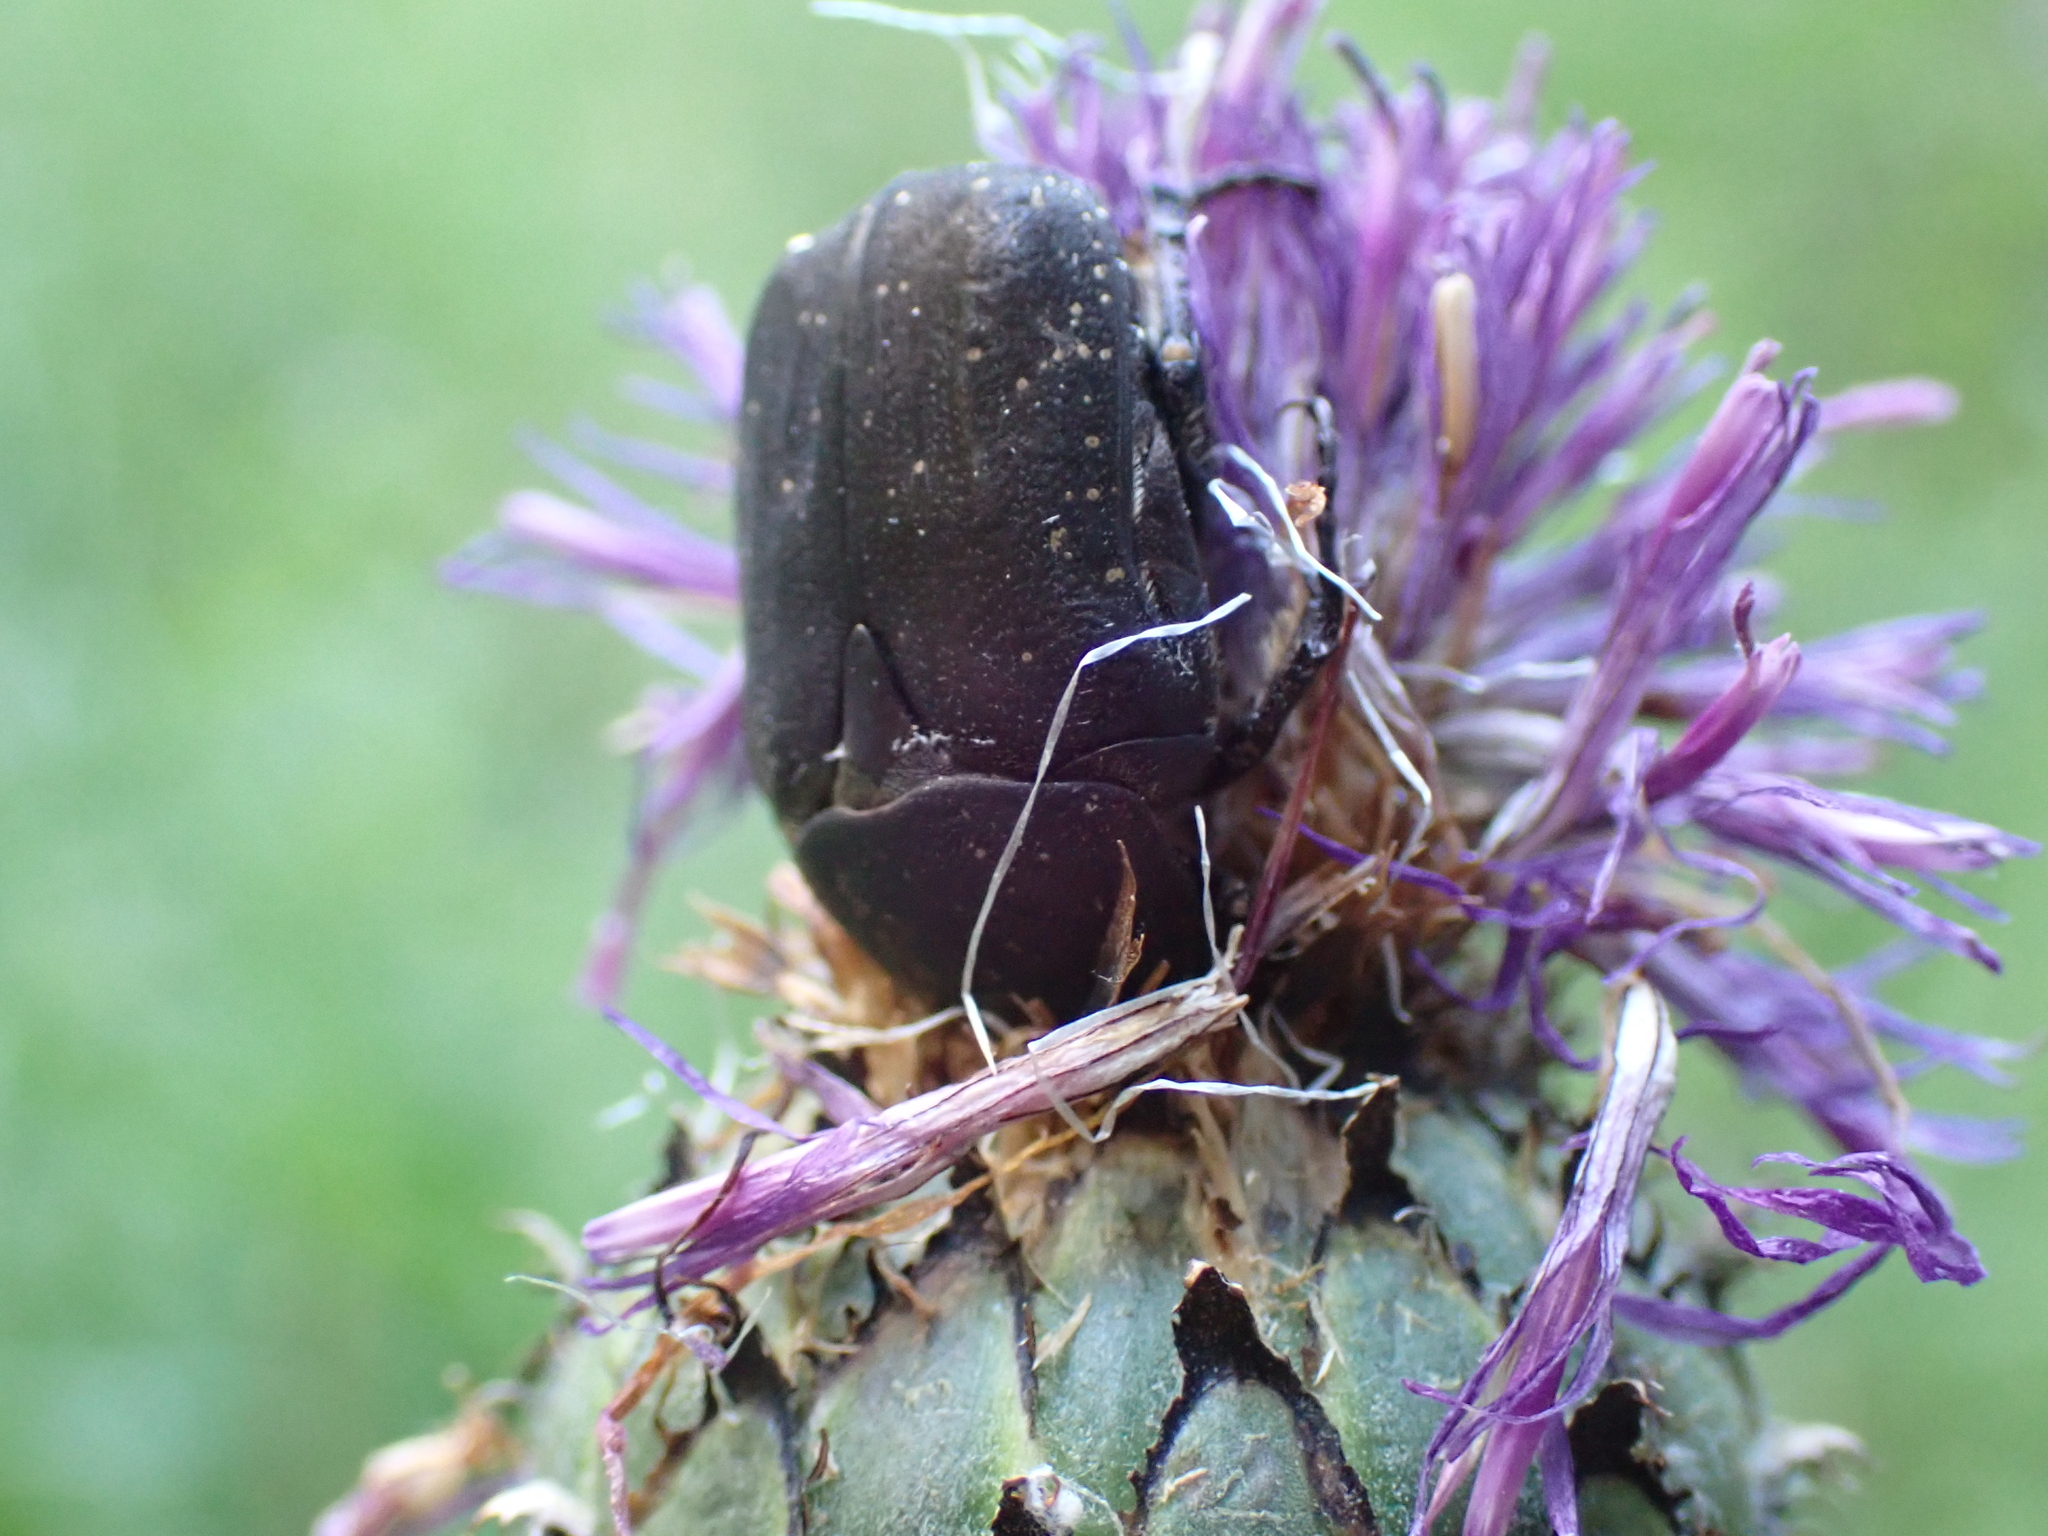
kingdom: Animalia
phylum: Arthropoda
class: Insecta
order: Coleoptera
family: Scarabaeidae
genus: Protaetia
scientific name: Protaetia morio
